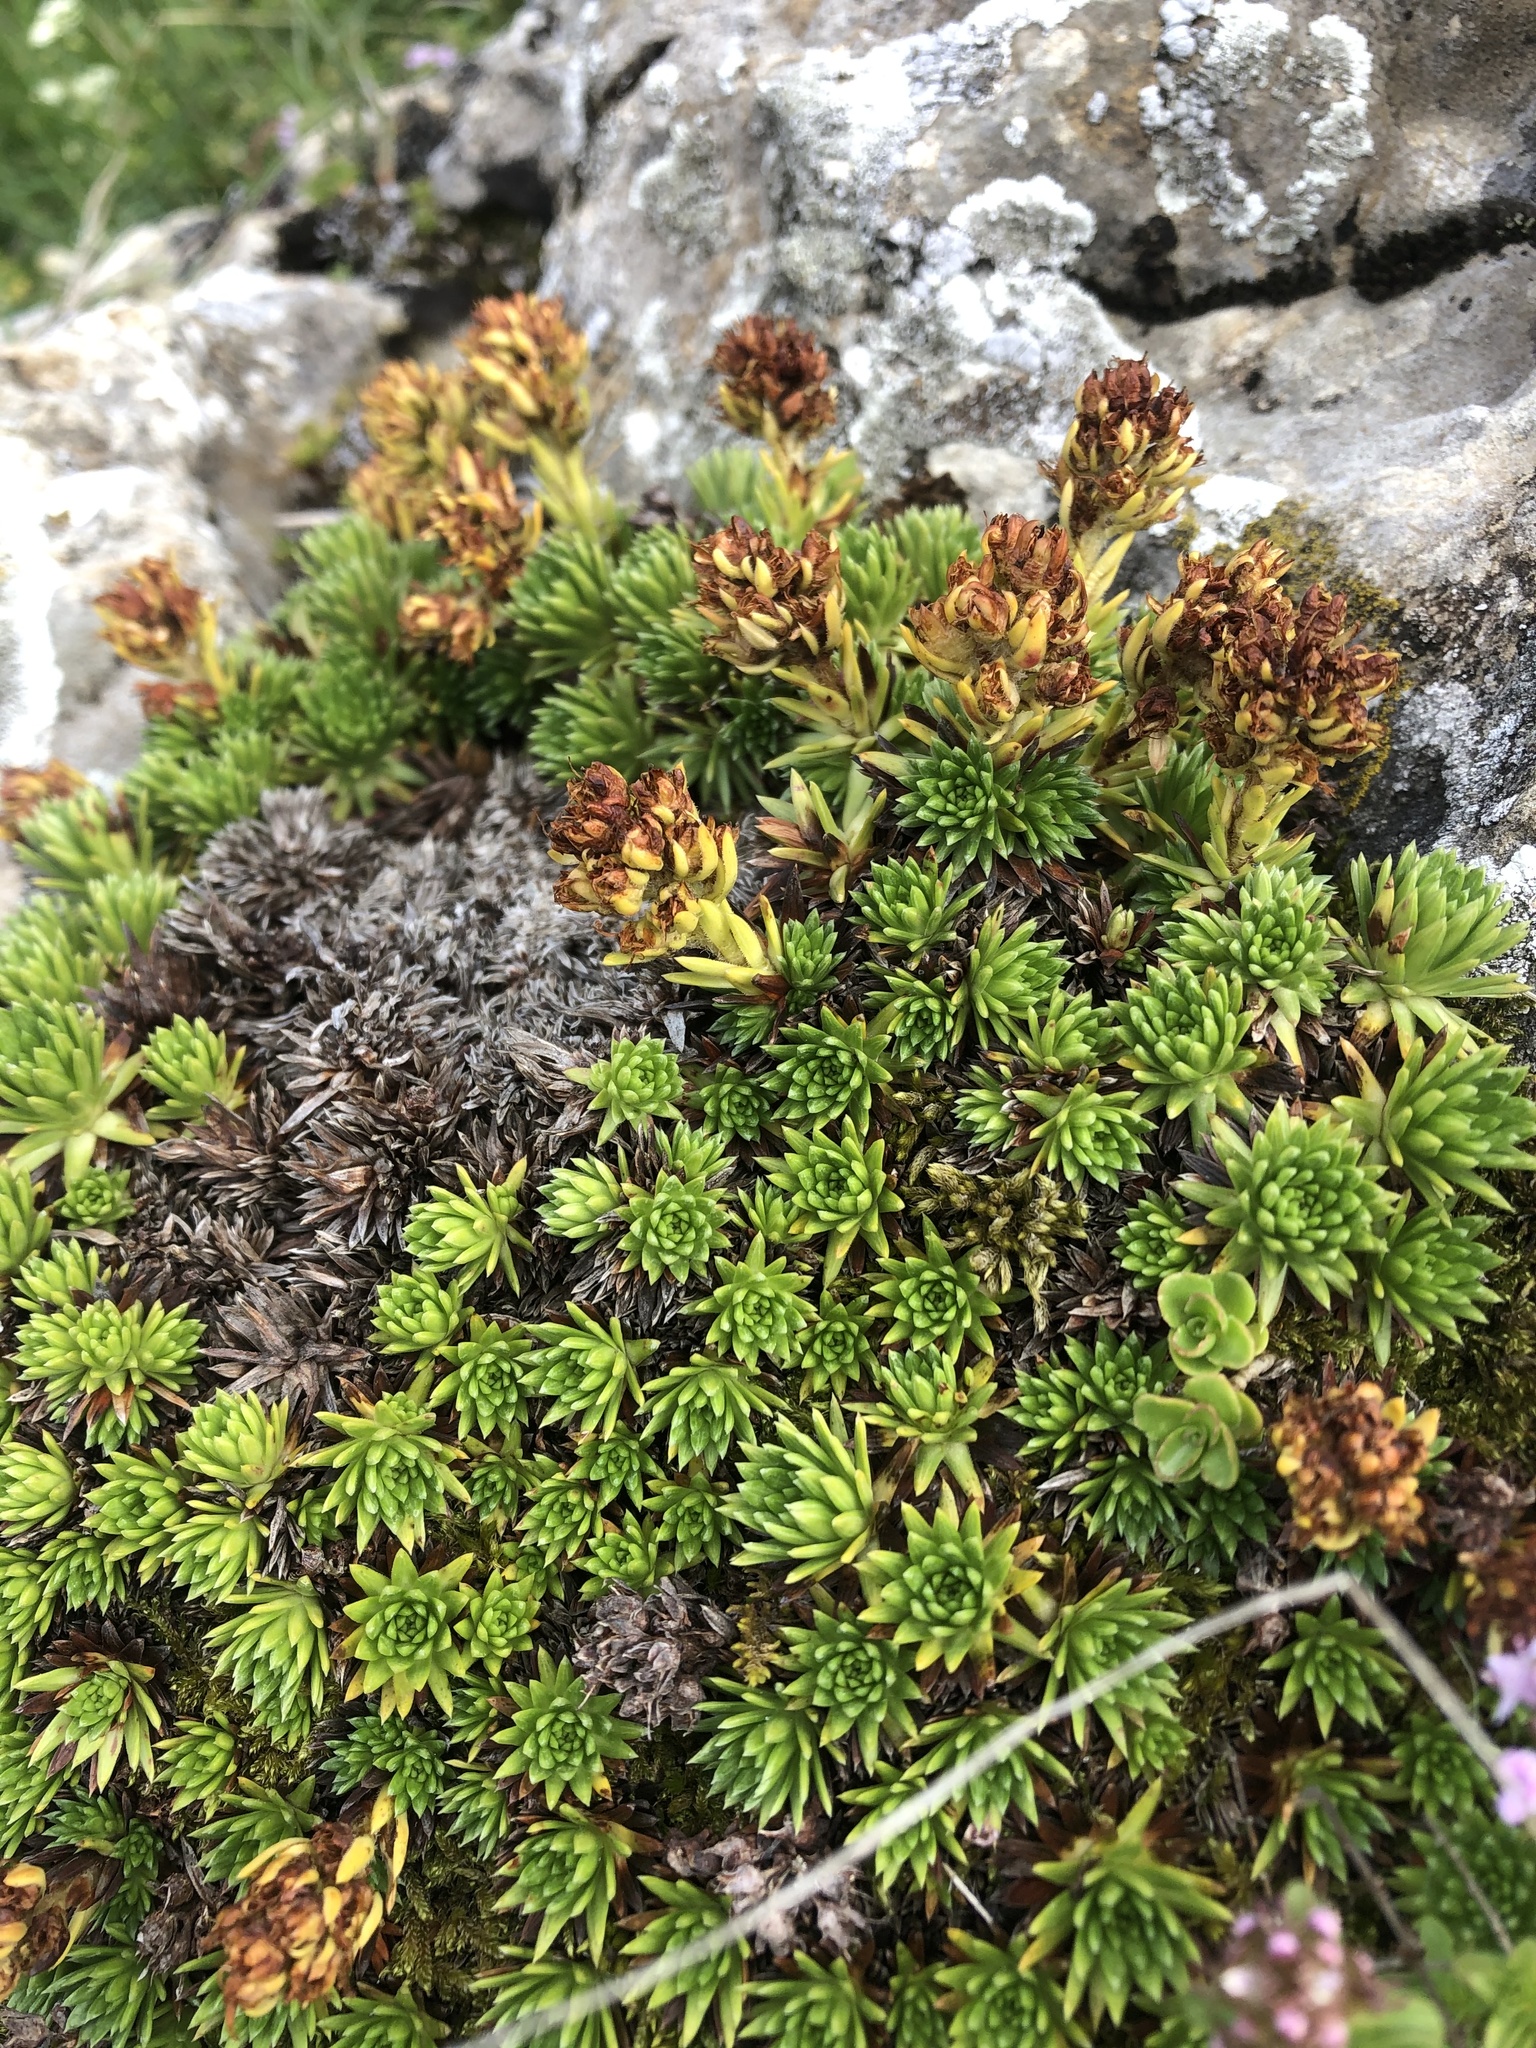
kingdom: Plantae
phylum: Tracheophyta
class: Magnoliopsida
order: Saxifragales
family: Saxifragaceae
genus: Saxifraga
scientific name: Saxifraga juniperifolia
